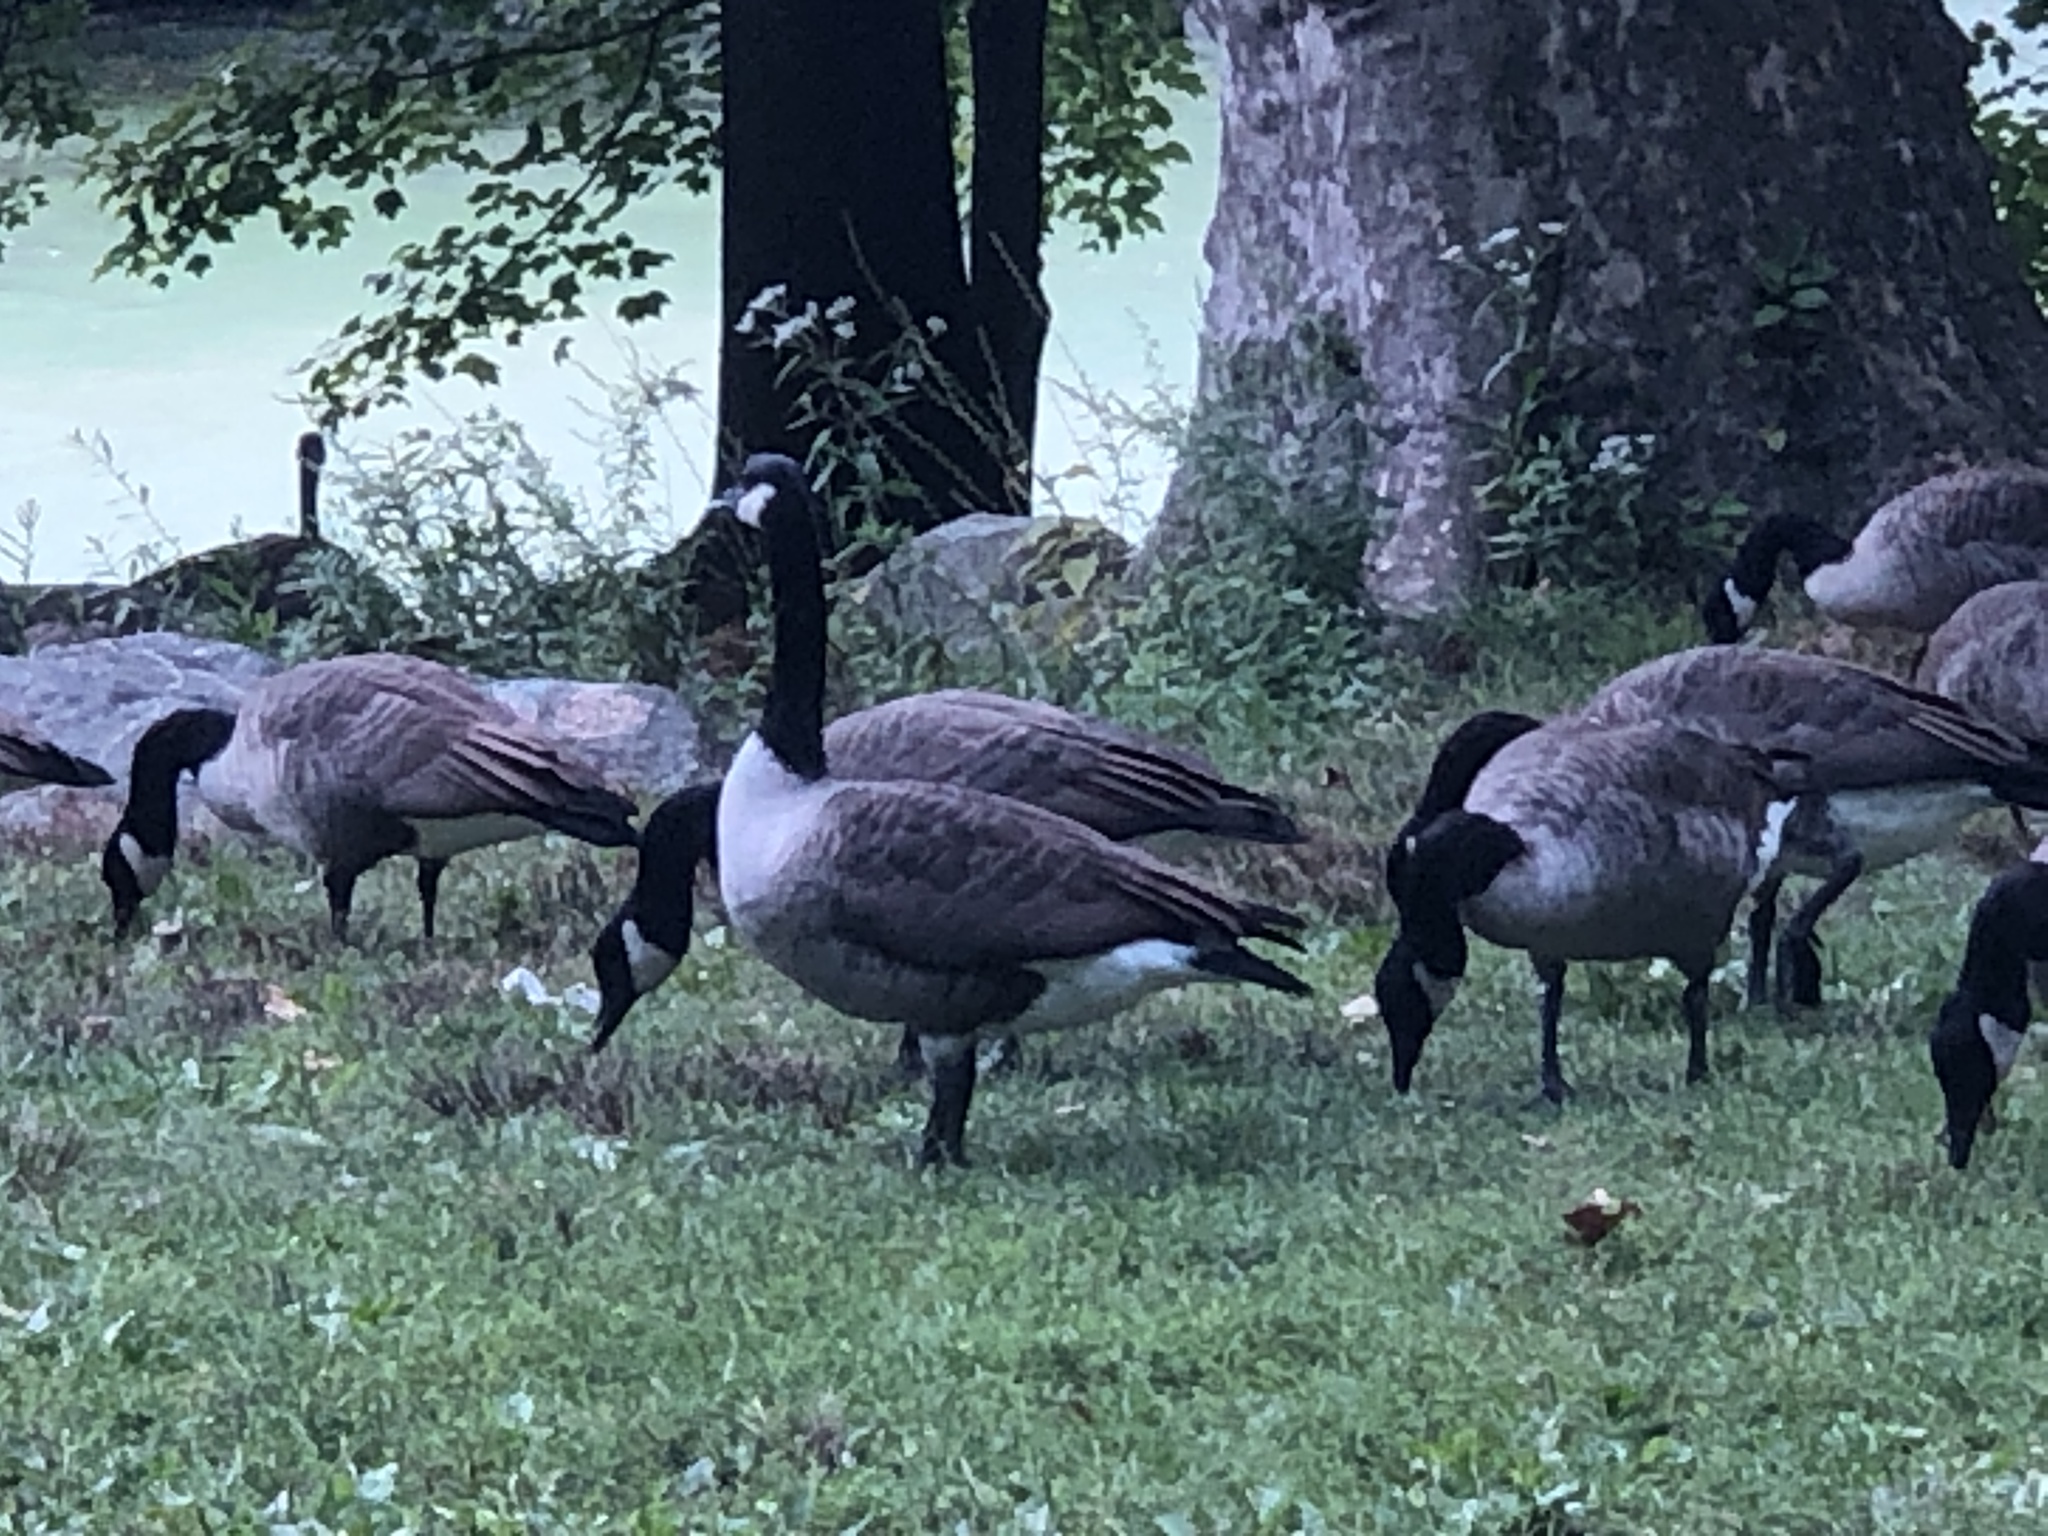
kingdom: Animalia
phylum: Chordata
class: Aves
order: Anseriformes
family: Anatidae
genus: Branta
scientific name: Branta canadensis
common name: Canada goose
